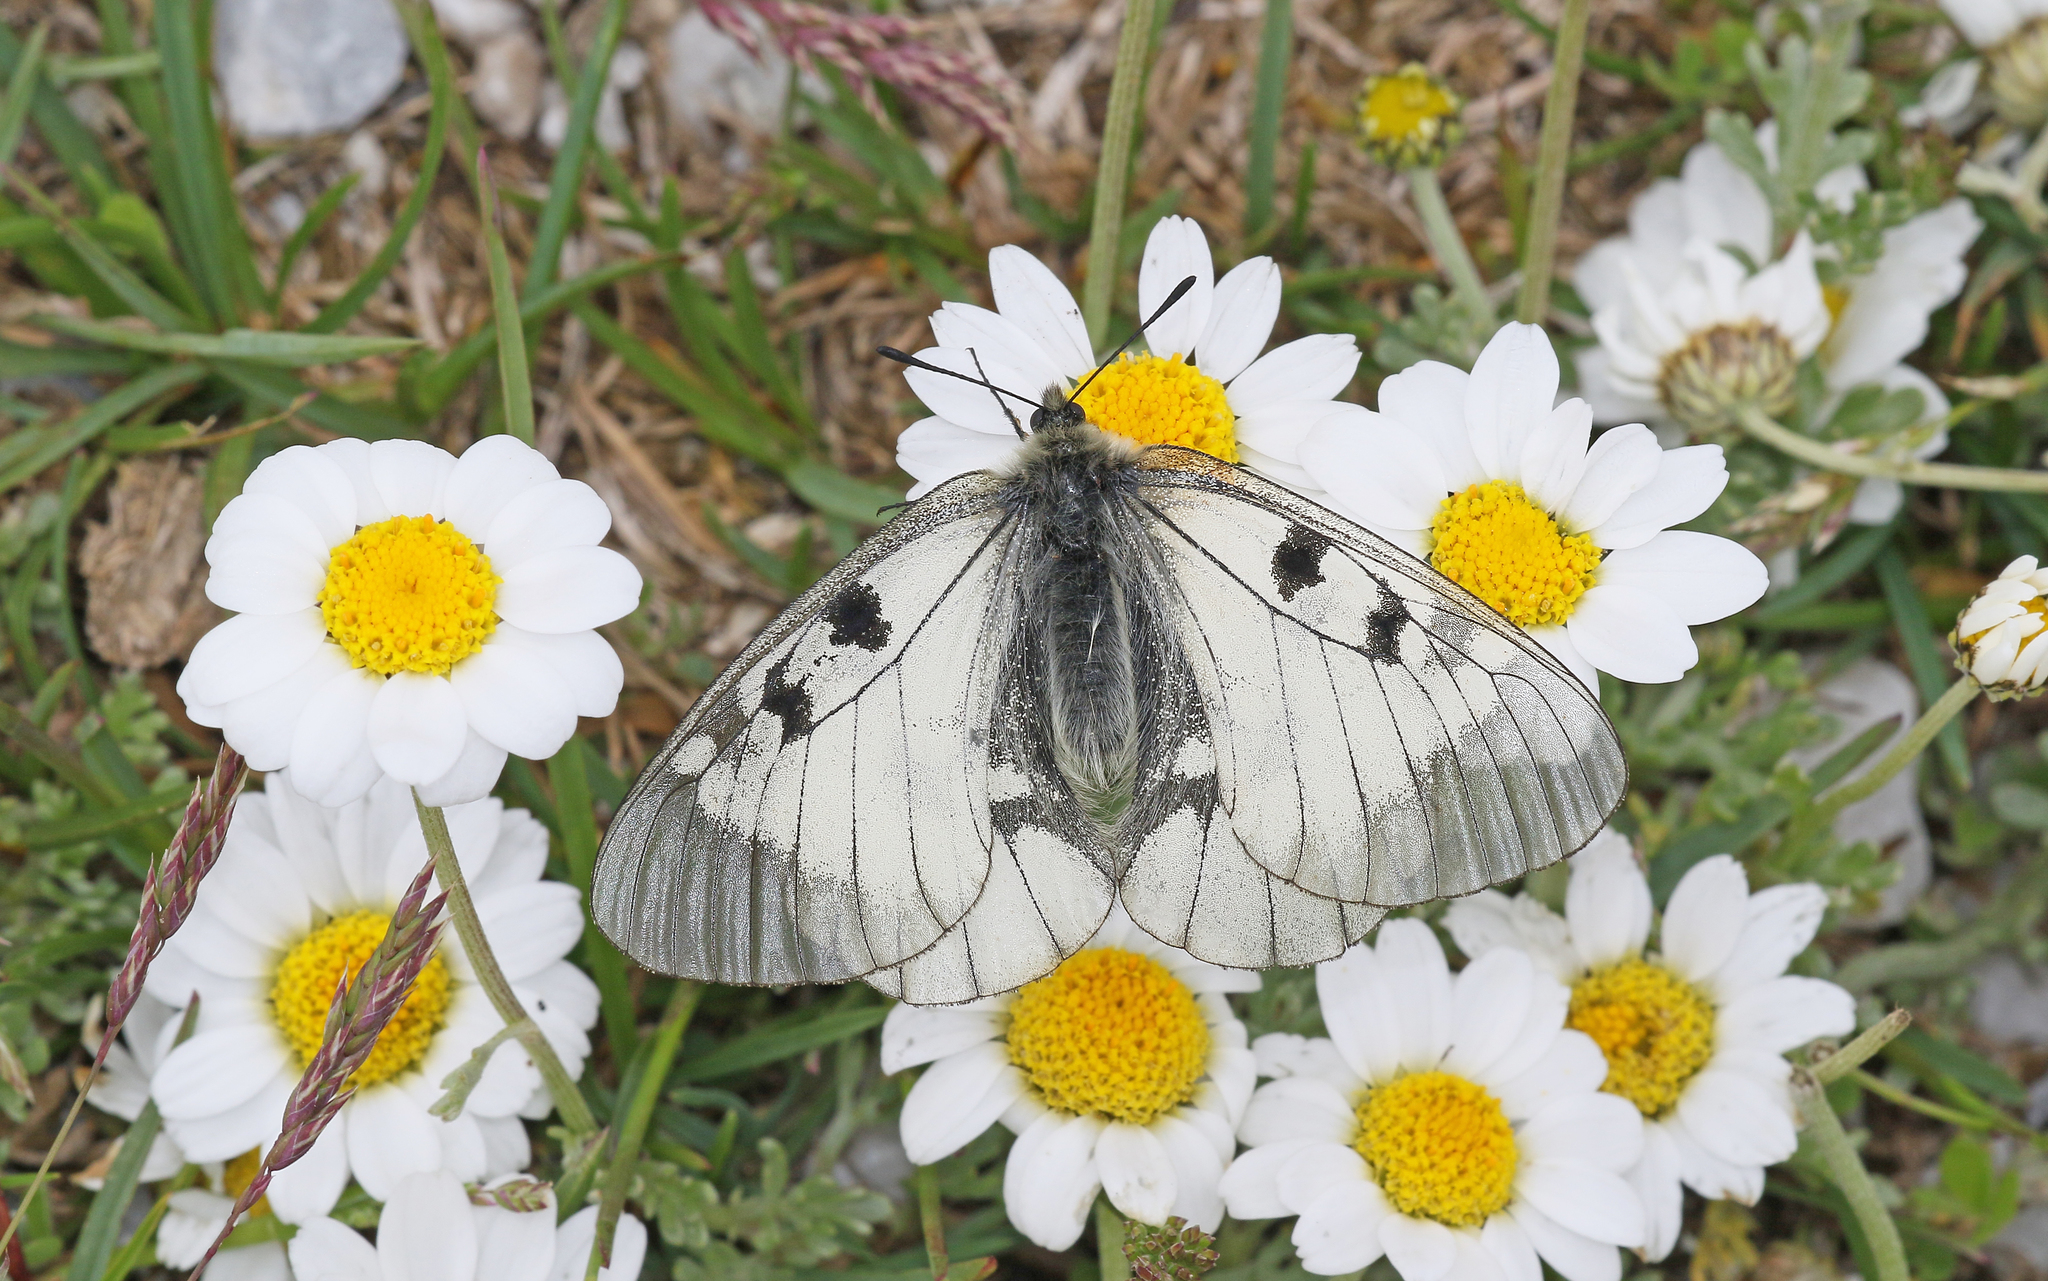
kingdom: Animalia
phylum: Arthropoda
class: Insecta
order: Lepidoptera
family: Papilionidae
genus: Parnassius
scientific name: Parnassius mnemosyne
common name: Clouded apollo
